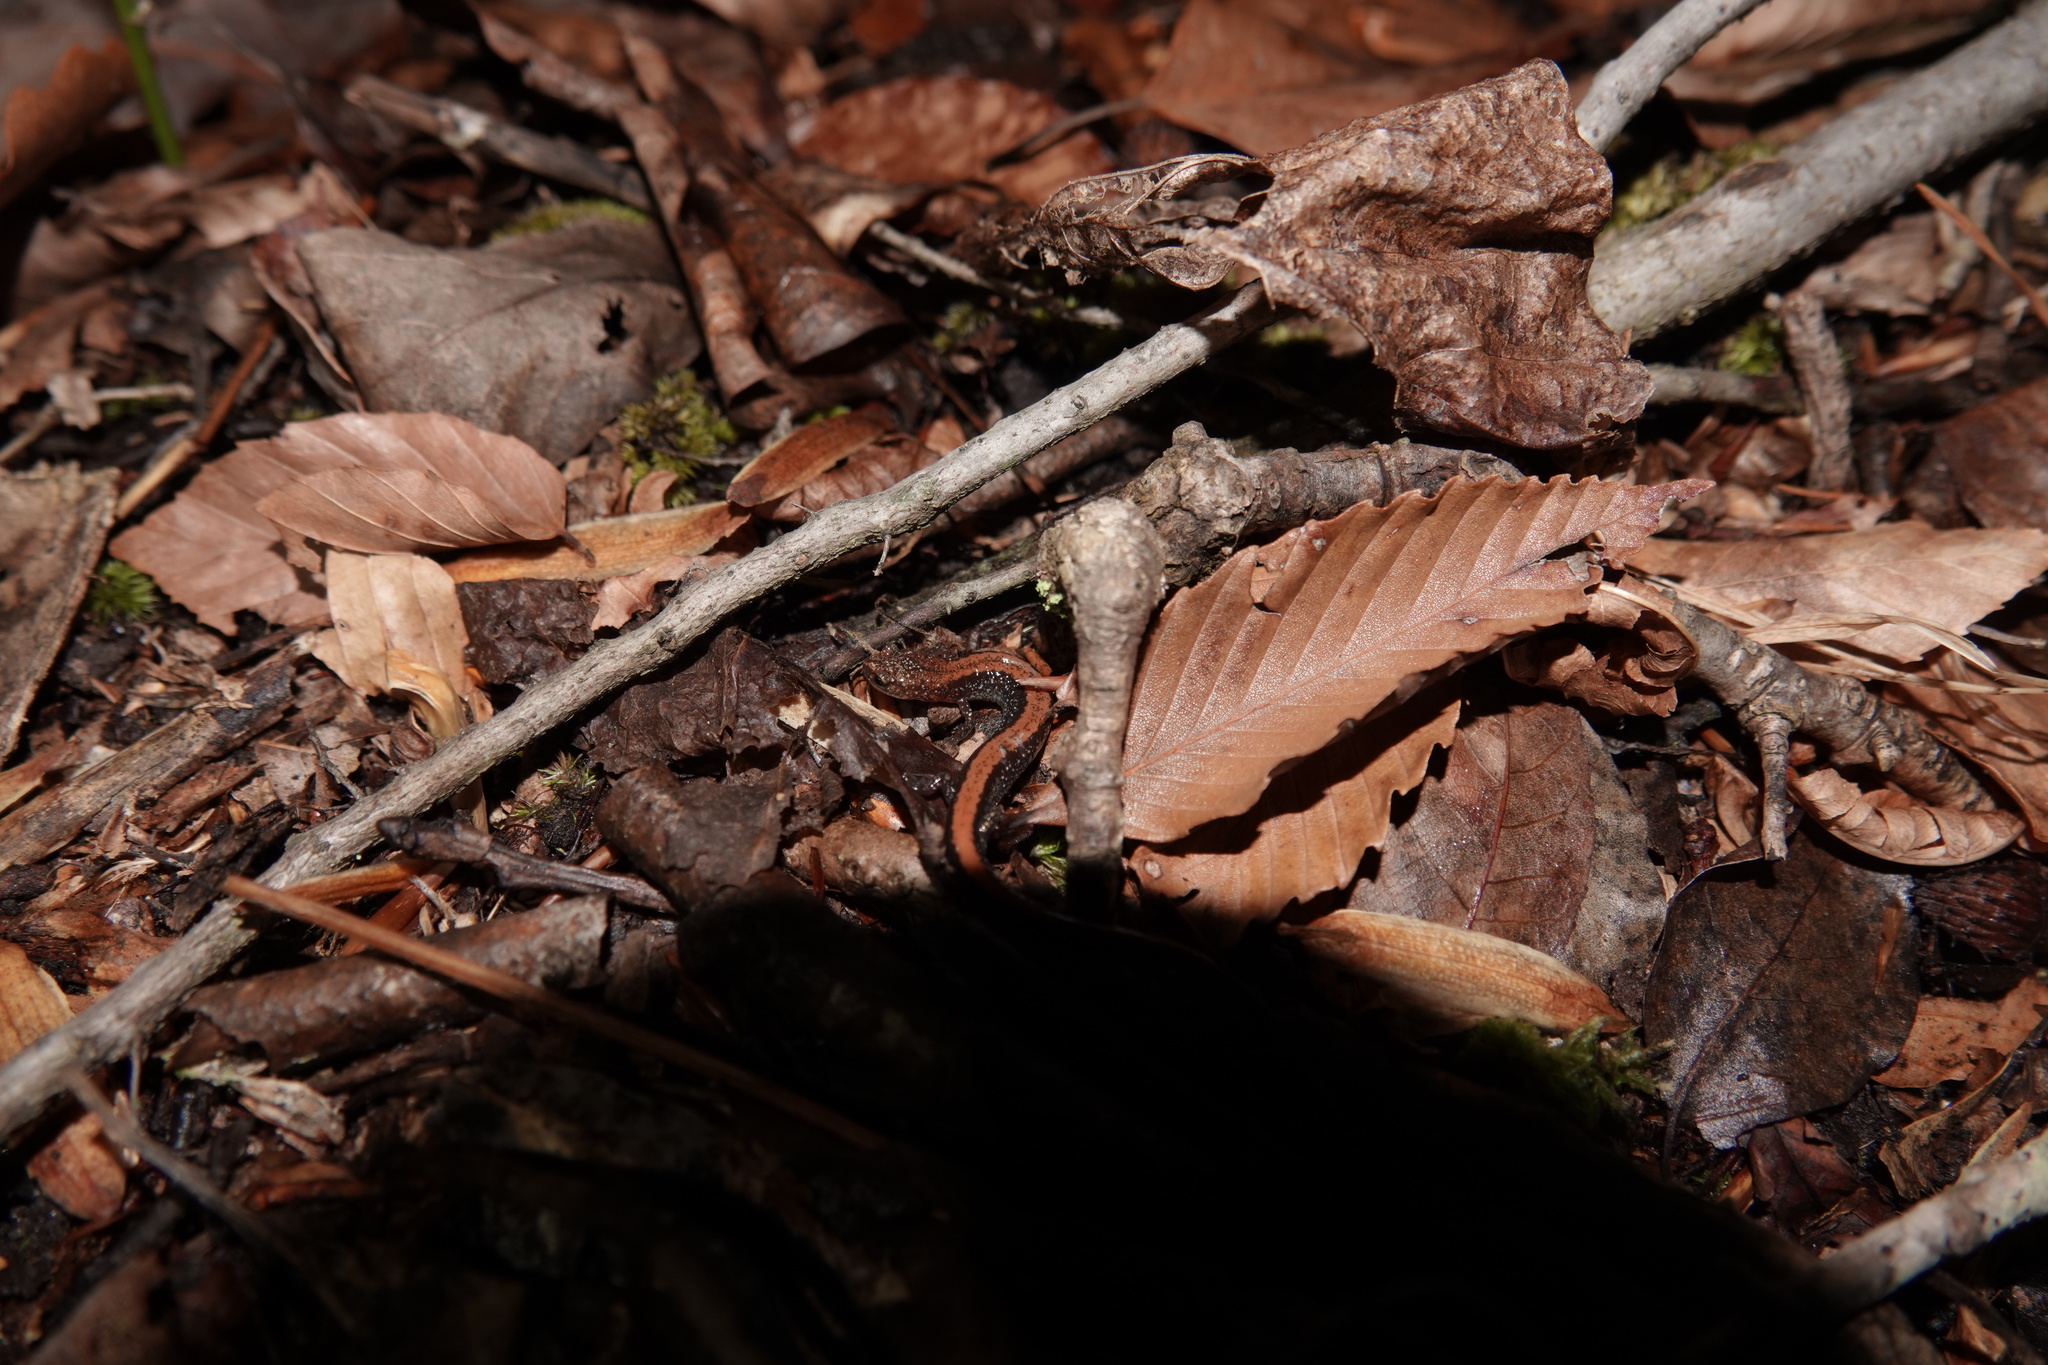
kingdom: Animalia
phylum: Chordata
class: Amphibia
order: Caudata
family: Plethodontidae
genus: Plethodon
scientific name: Plethodon cinereus
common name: Redback salamander
